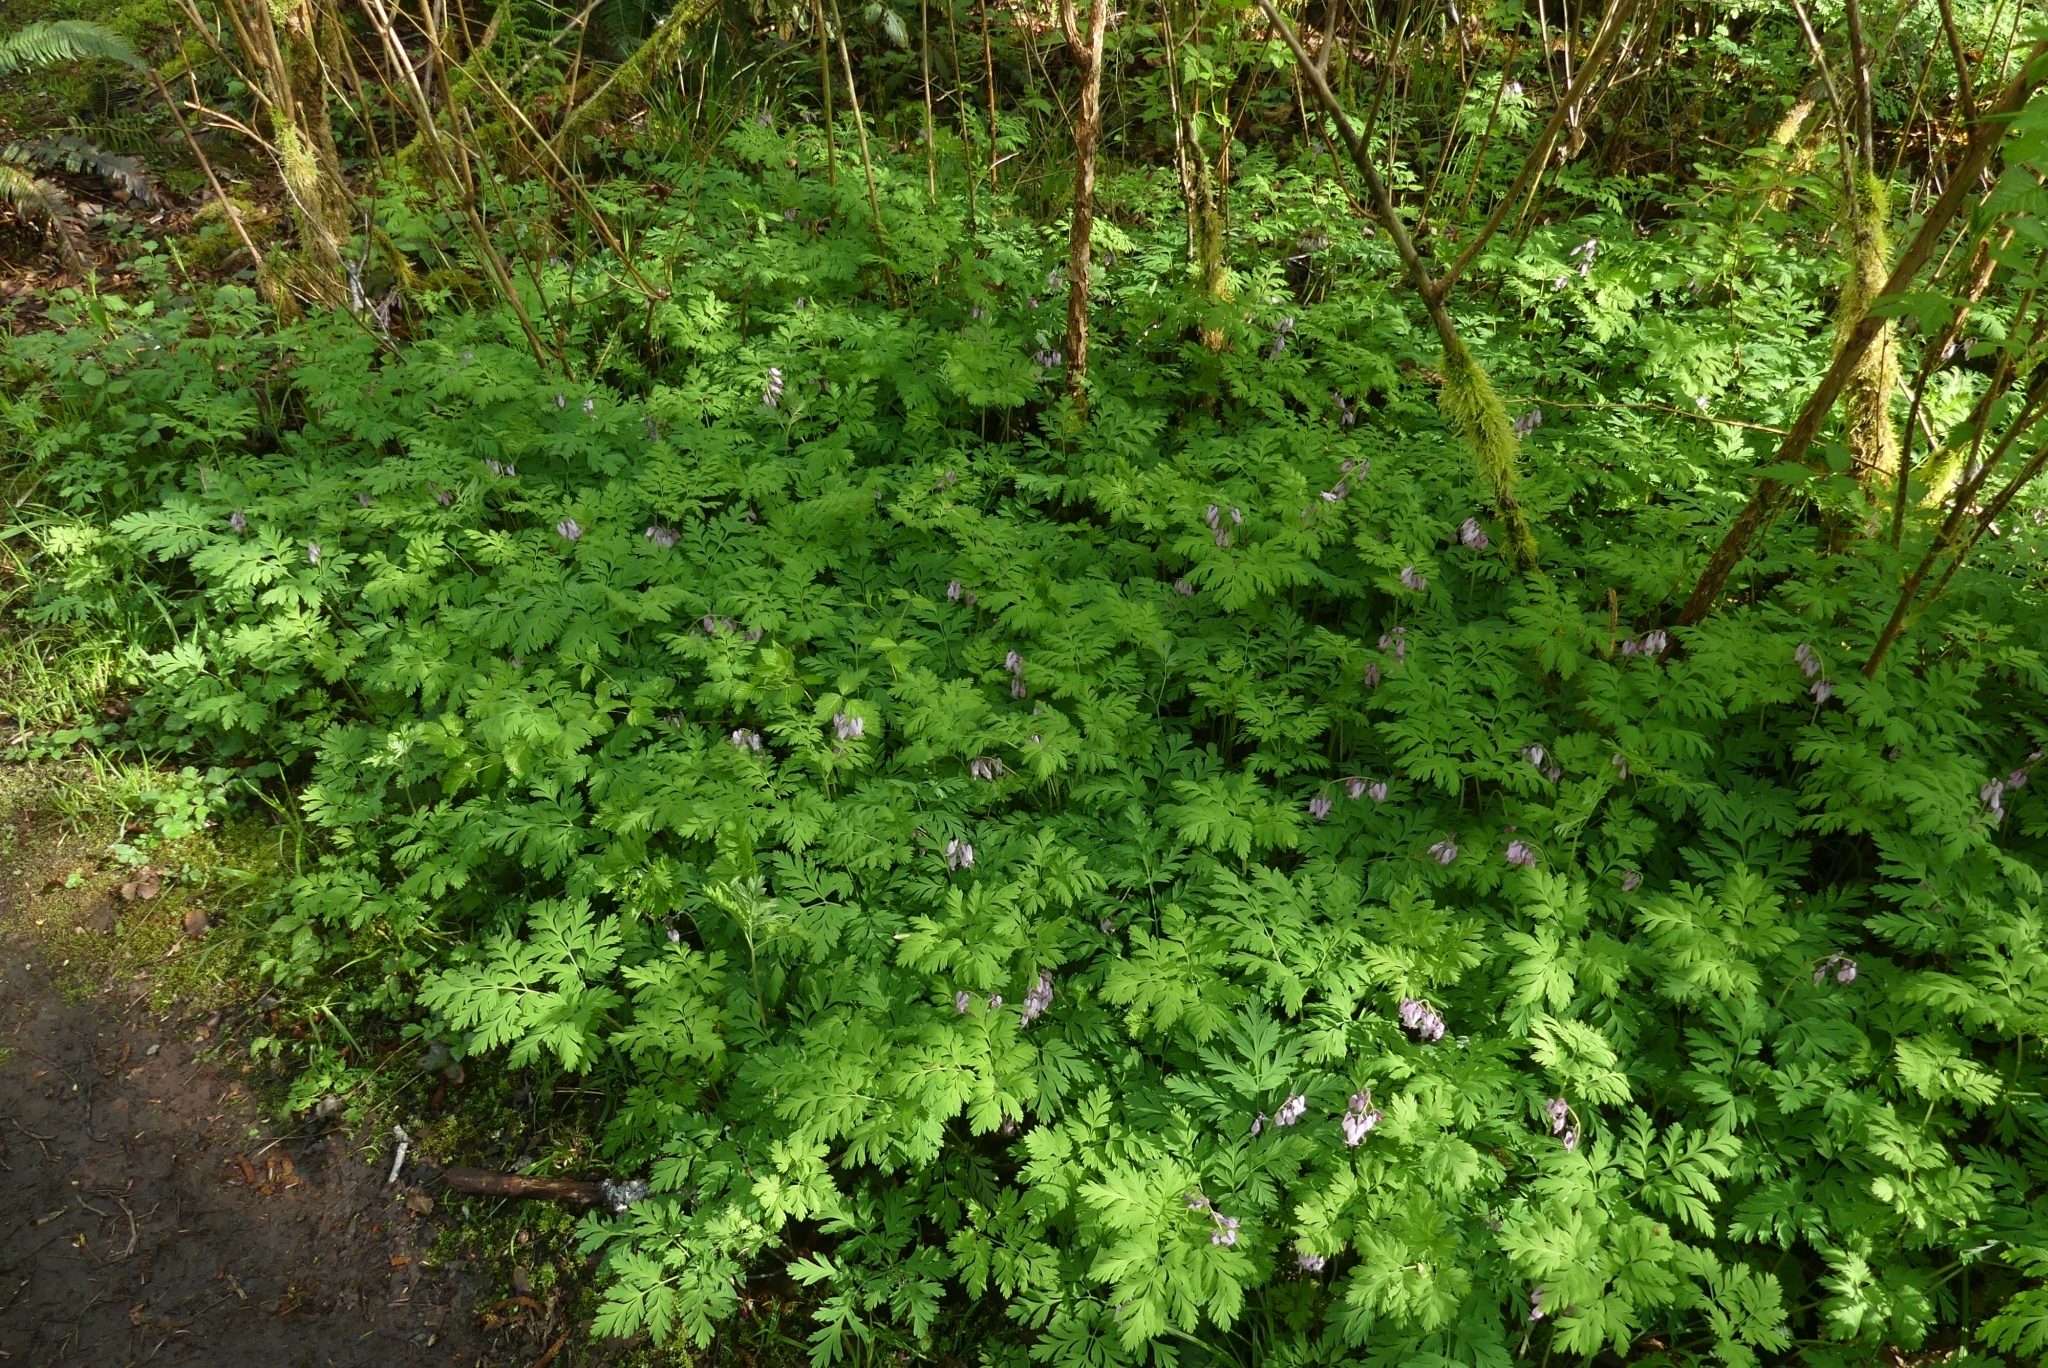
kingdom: Plantae
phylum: Tracheophyta
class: Magnoliopsida
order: Ranunculales
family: Papaveraceae
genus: Dicentra
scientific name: Dicentra formosa
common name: Bleeding-heart
